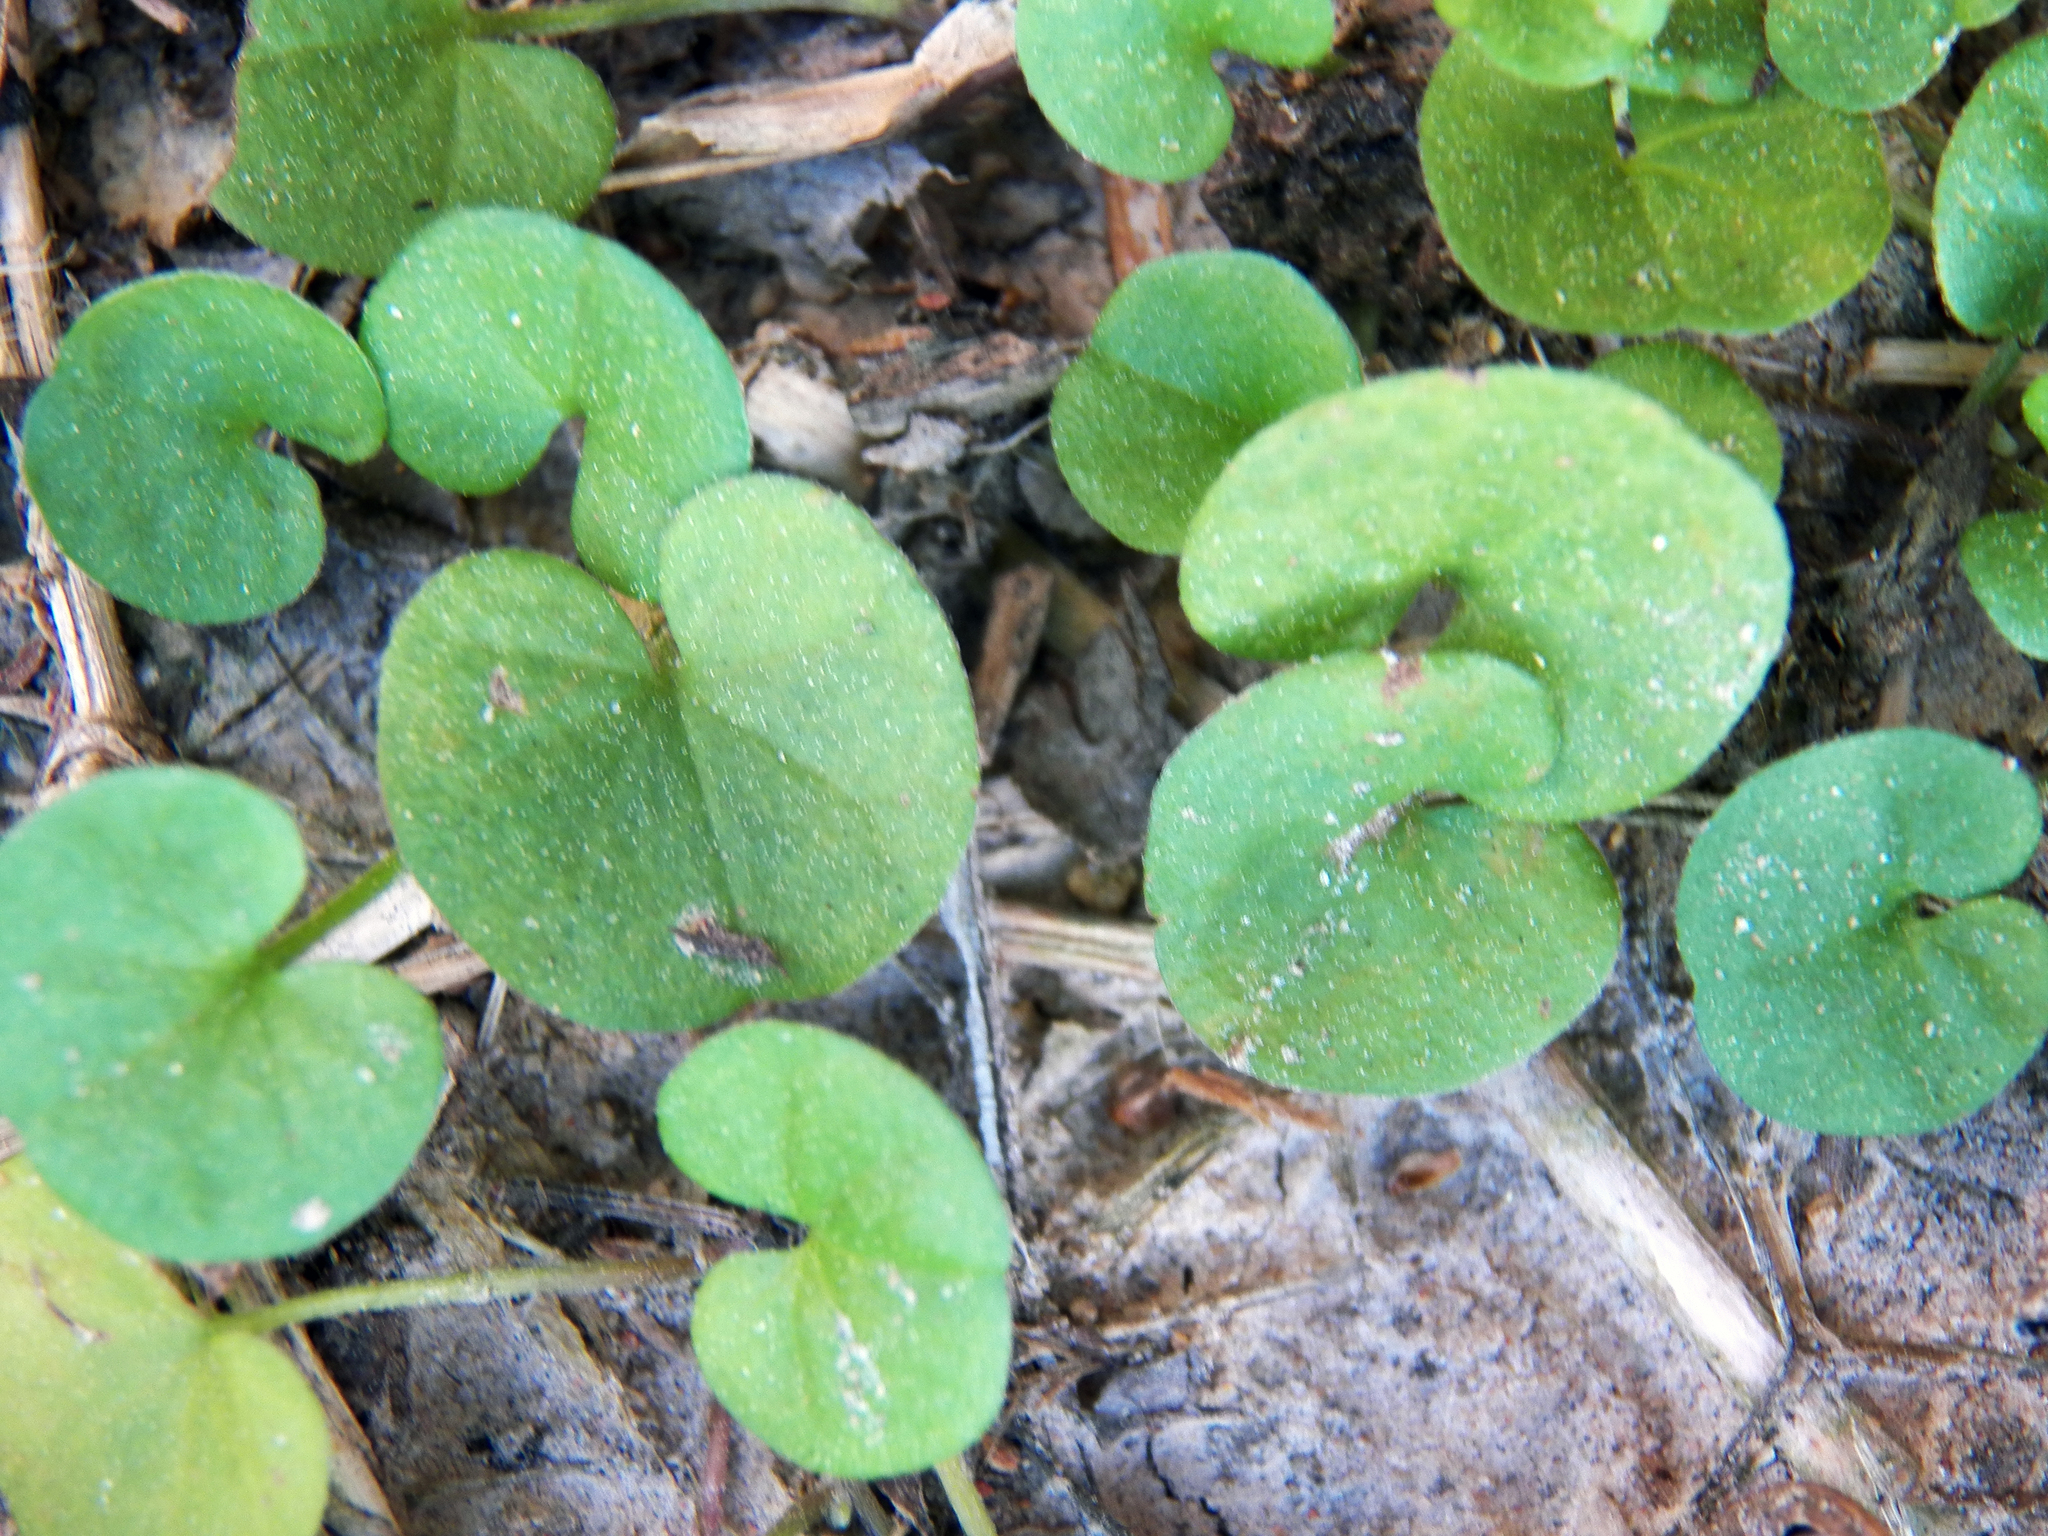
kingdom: Plantae
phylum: Tracheophyta
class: Magnoliopsida
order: Solanales
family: Convolvulaceae
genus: Dichondra
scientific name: Dichondra carolinensis
